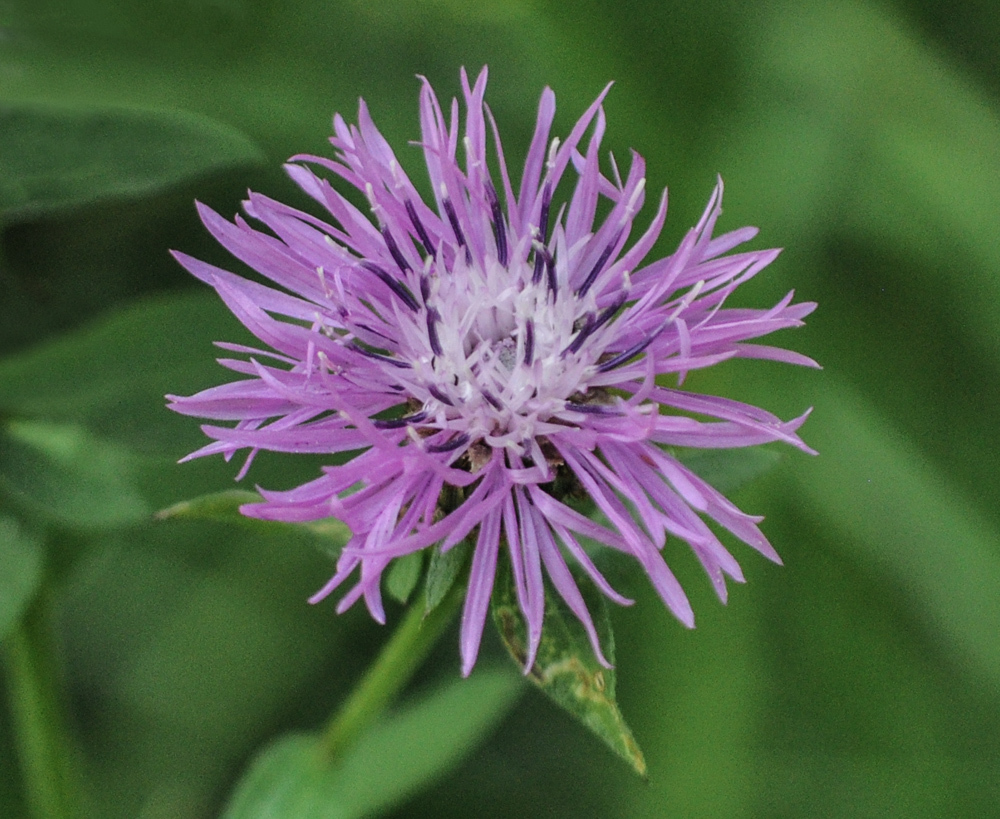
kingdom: Plantae
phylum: Tracheophyta
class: Magnoliopsida
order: Asterales
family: Asteraceae
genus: Centaurea
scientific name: Centaurea nigrescens
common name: Tyrol knapweed
